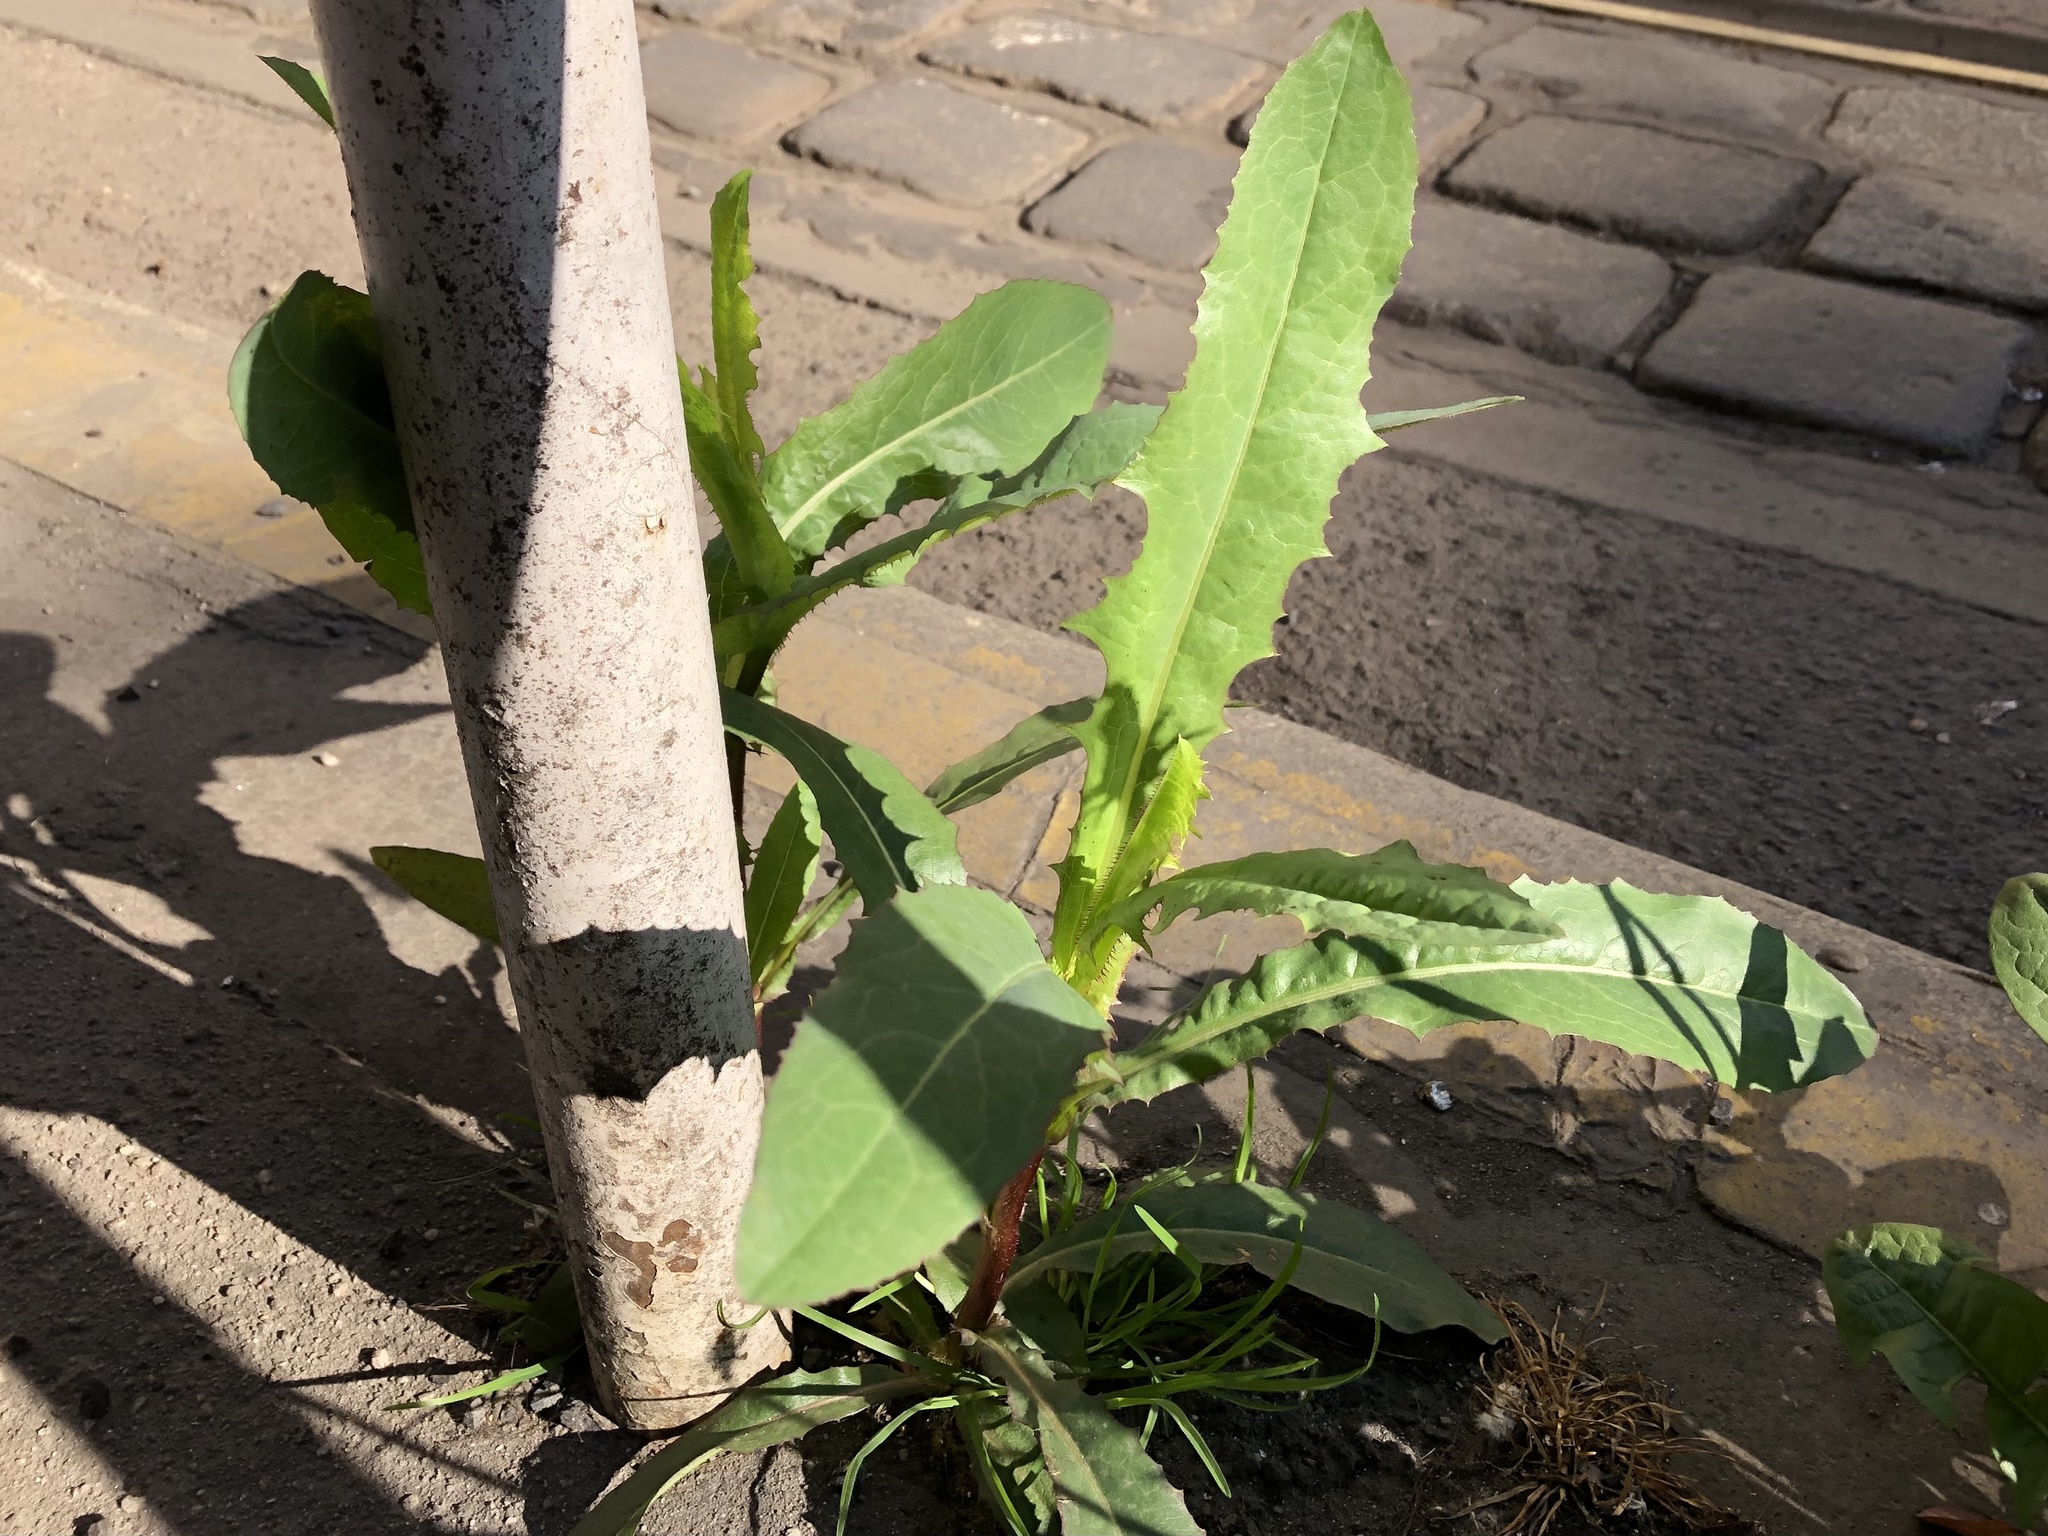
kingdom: Plantae
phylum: Tracheophyta
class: Magnoliopsida
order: Asterales
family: Asteraceae
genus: Lactuca
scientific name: Lactuca serriola
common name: Prickly lettuce
